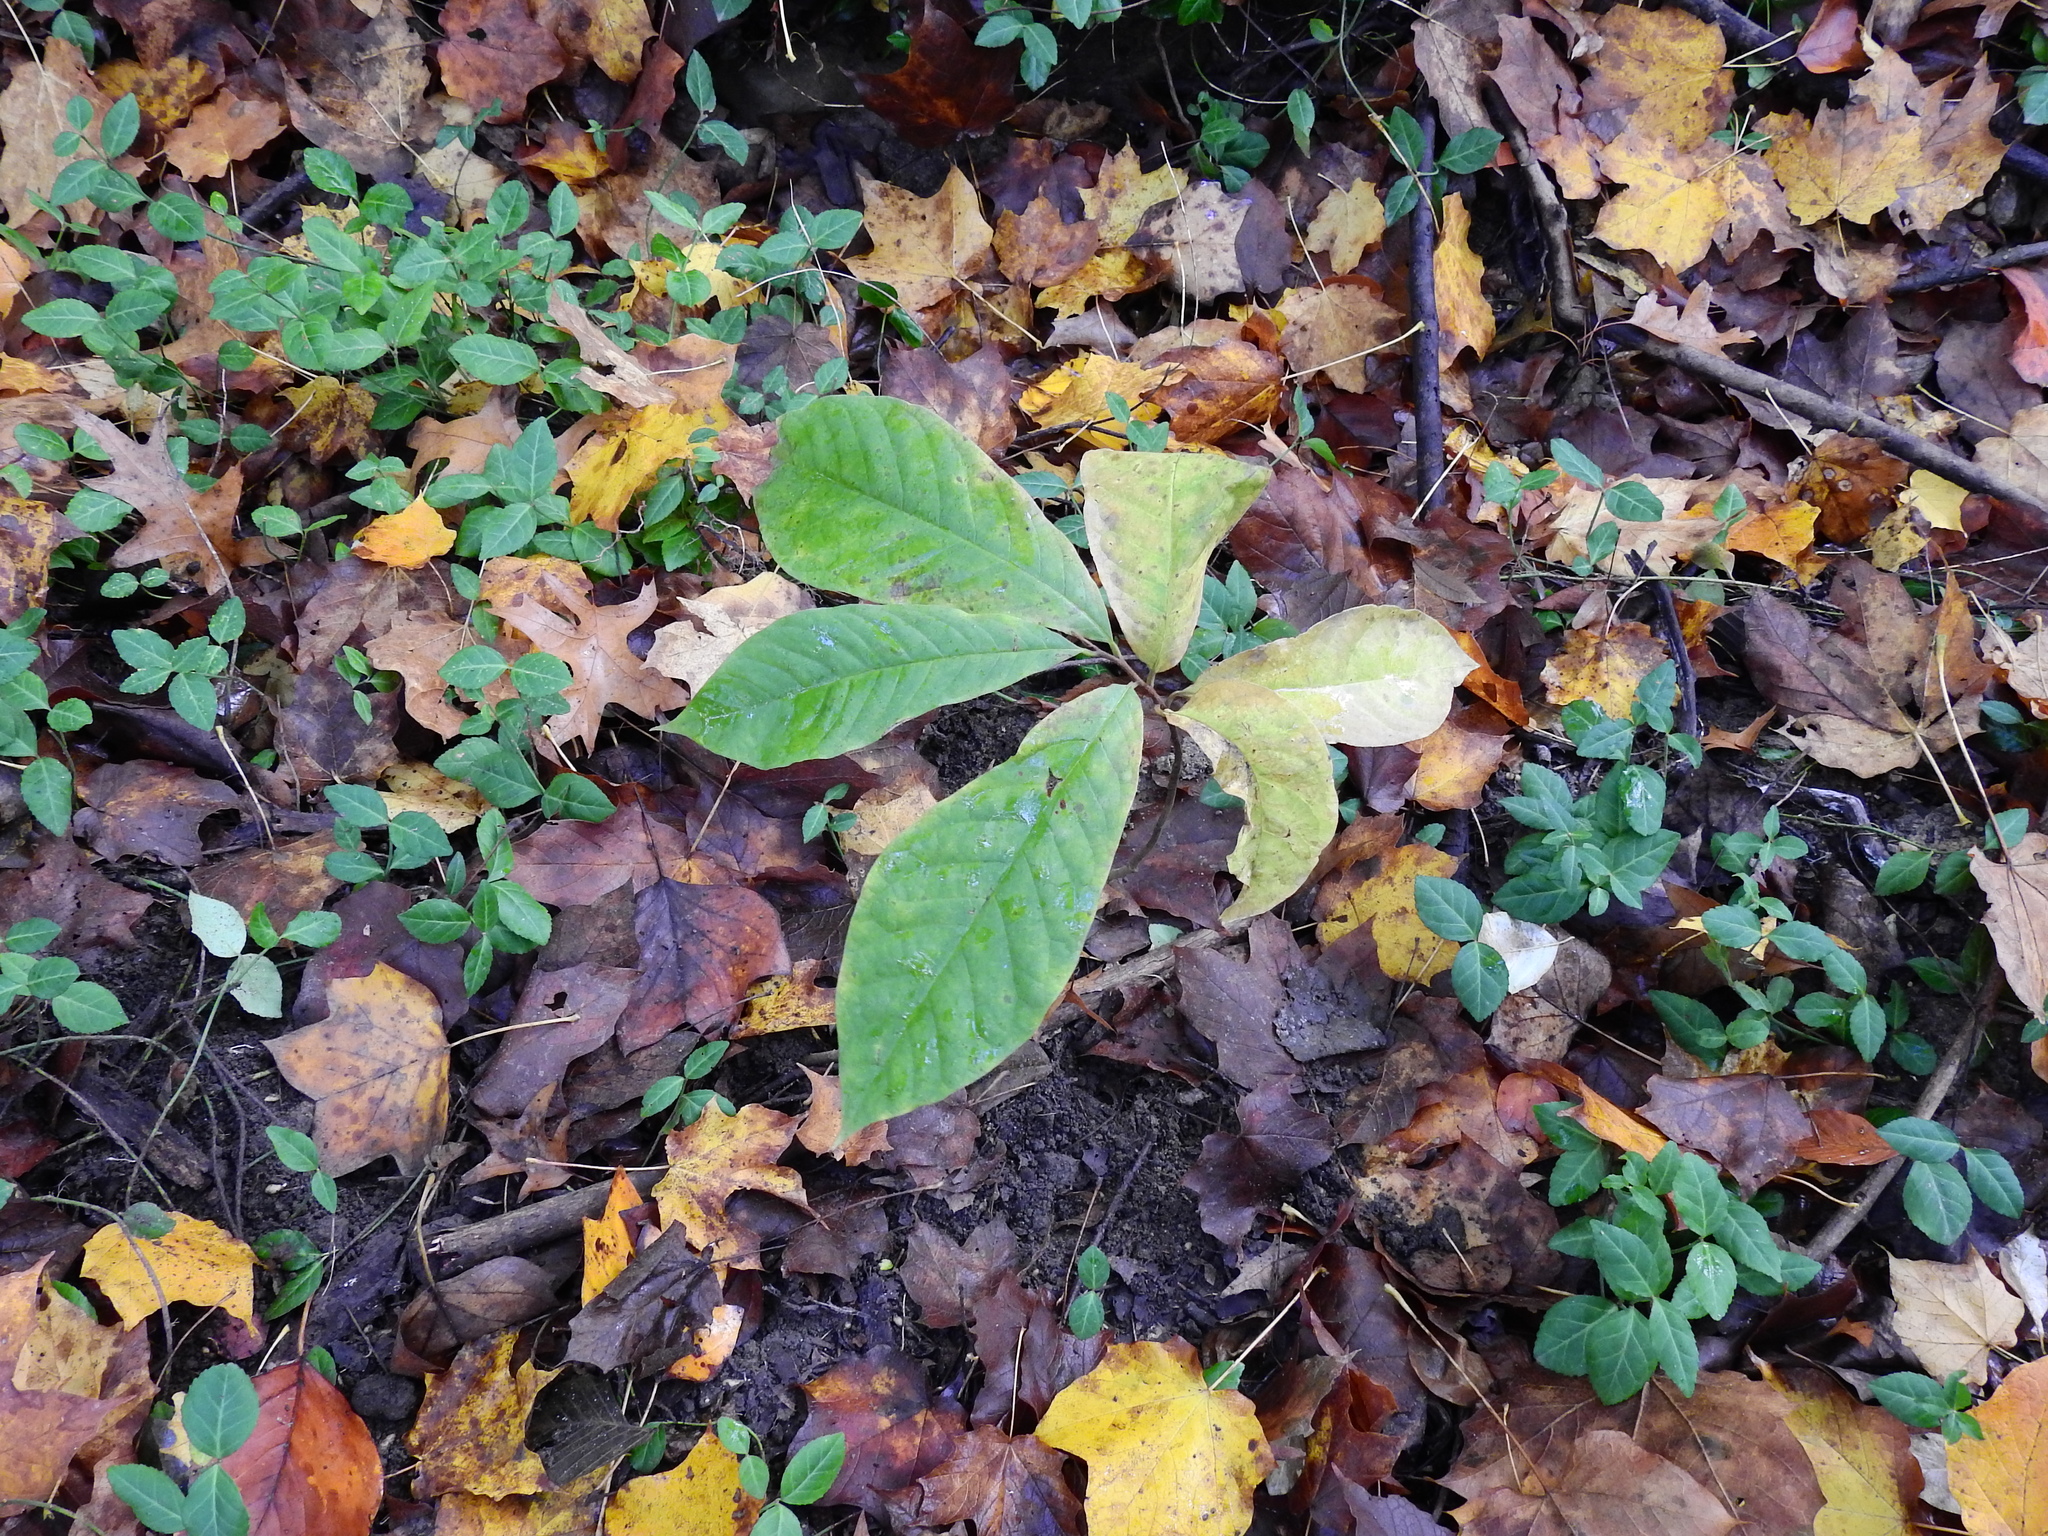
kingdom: Plantae
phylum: Tracheophyta
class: Magnoliopsida
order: Magnoliales
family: Annonaceae
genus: Asimina
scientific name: Asimina triloba
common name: Dog-banana
